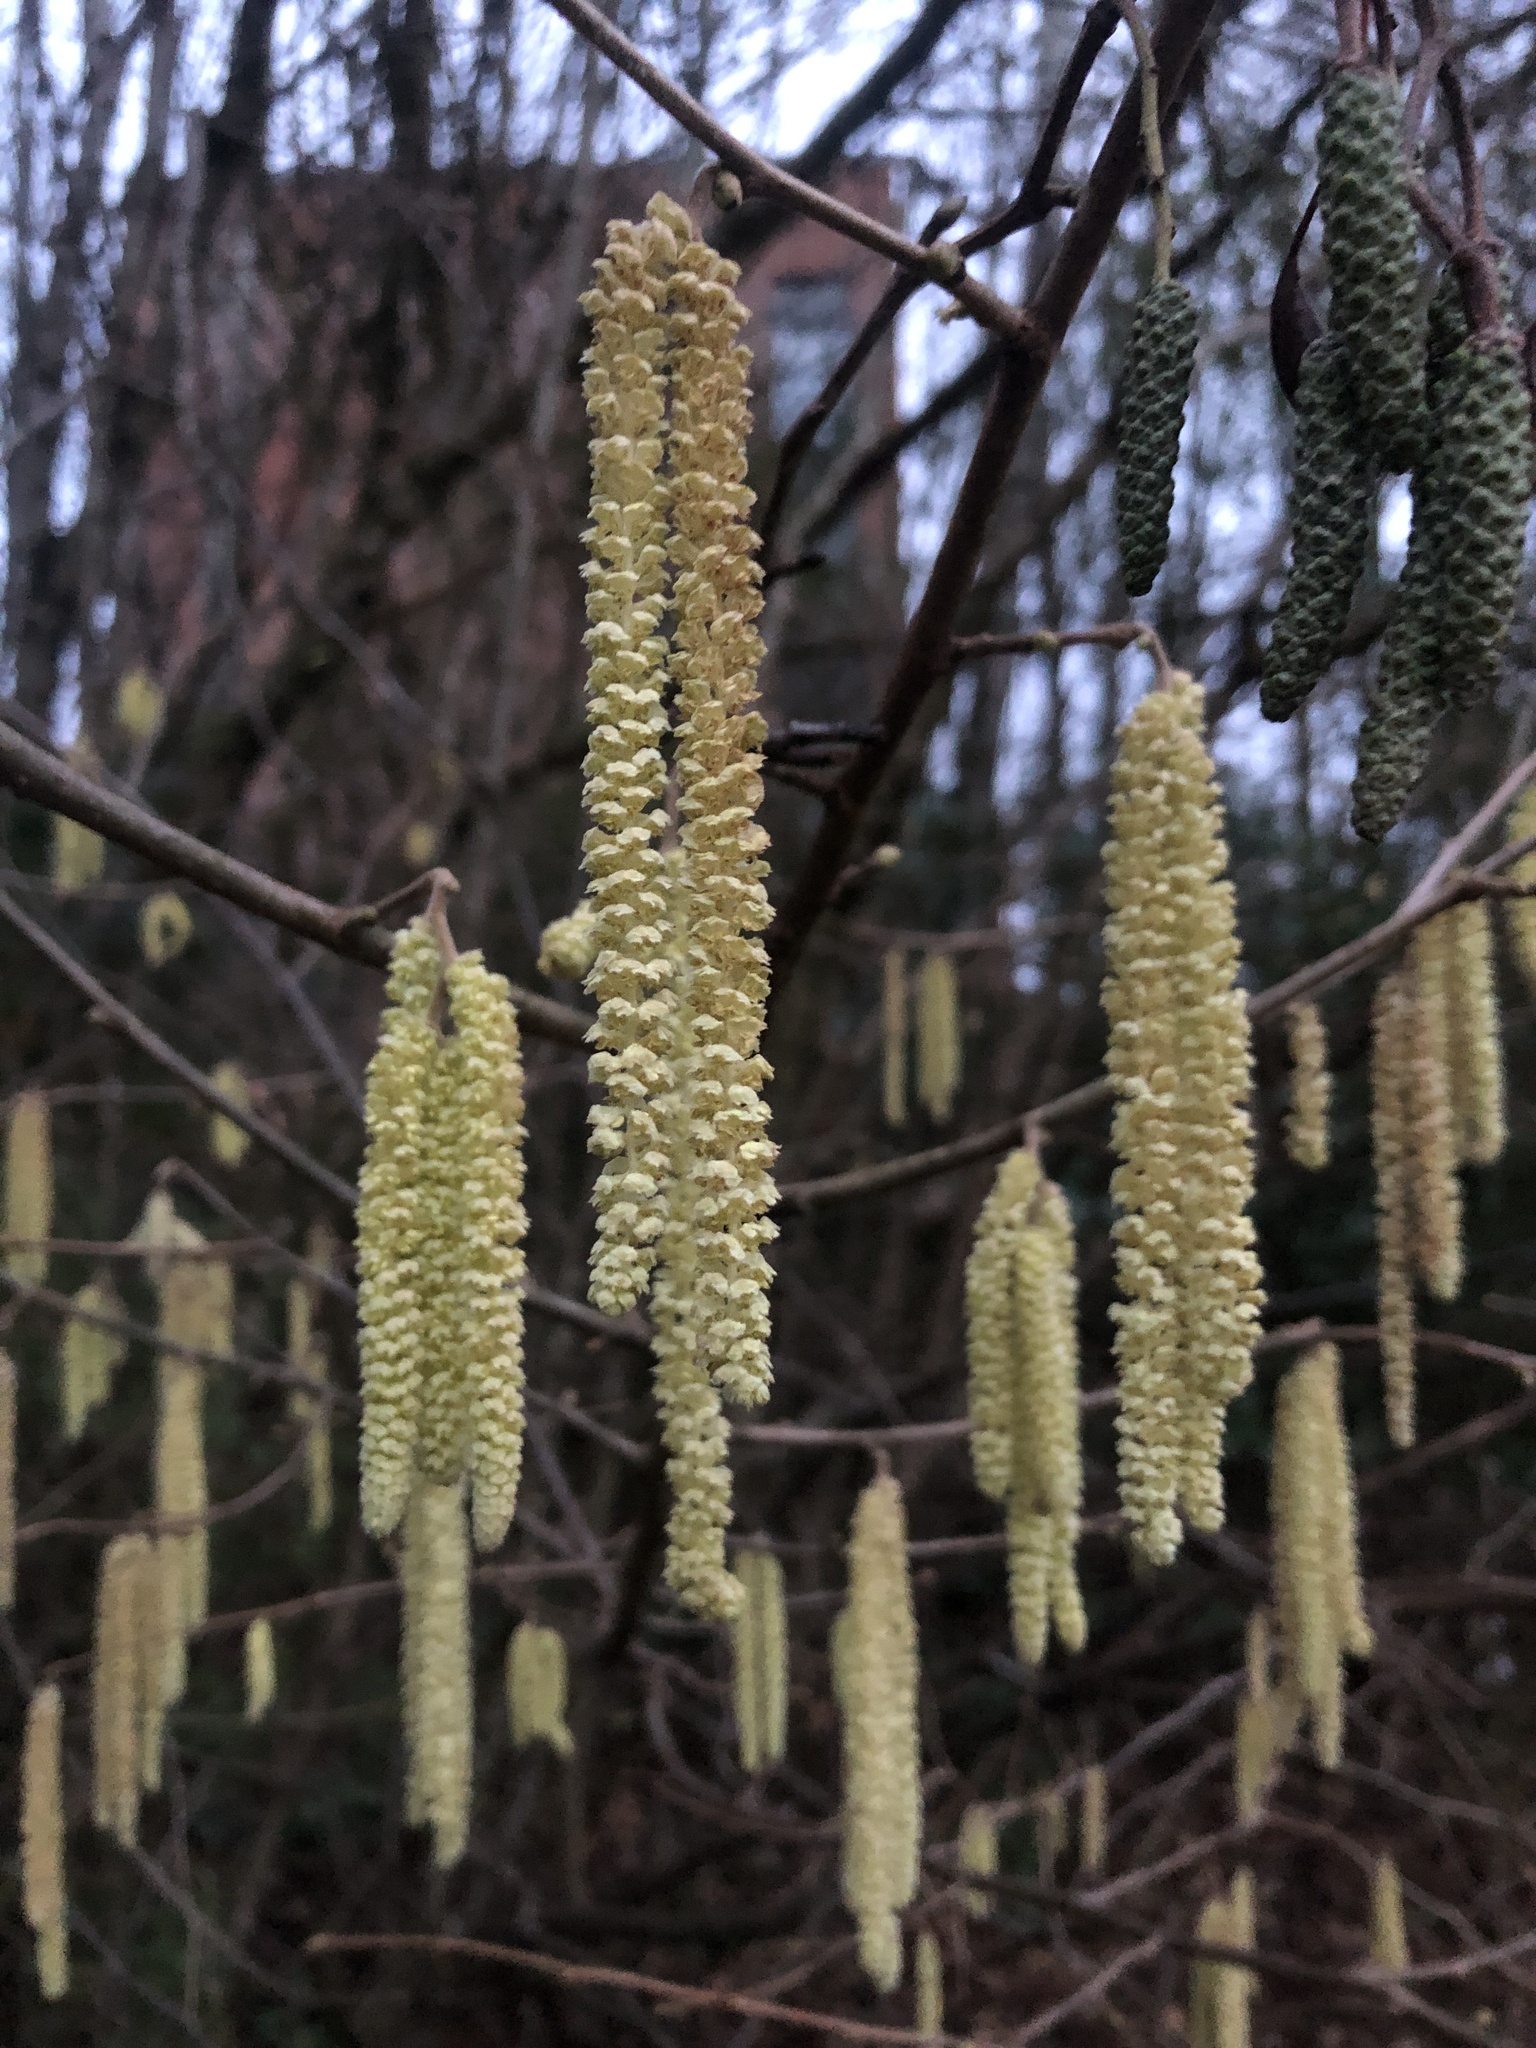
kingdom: Plantae
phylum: Tracheophyta
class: Magnoliopsida
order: Fagales
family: Betulaceae
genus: Corylus
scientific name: Corylus avellana
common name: European hazel
